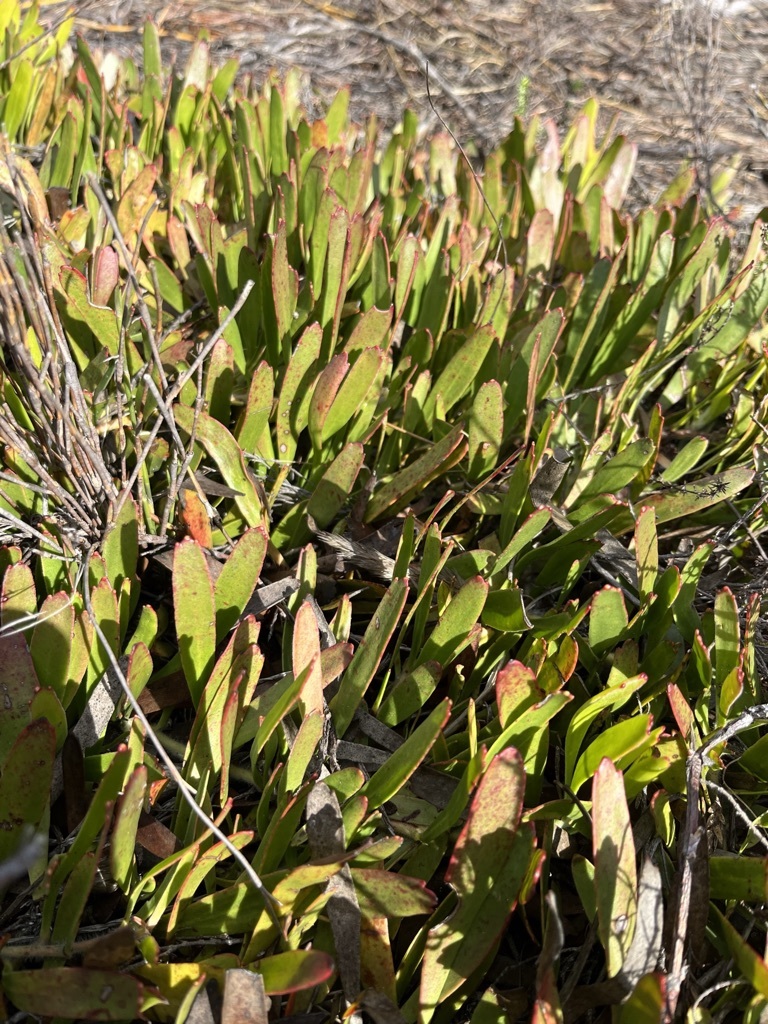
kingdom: Plantae
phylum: Tracheophyta
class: Magnoliopsida
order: Proteales
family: Proteaceae
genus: Leucospermum
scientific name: Leucospermum hypophyllocarpodendron
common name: Snakestem pincushion
